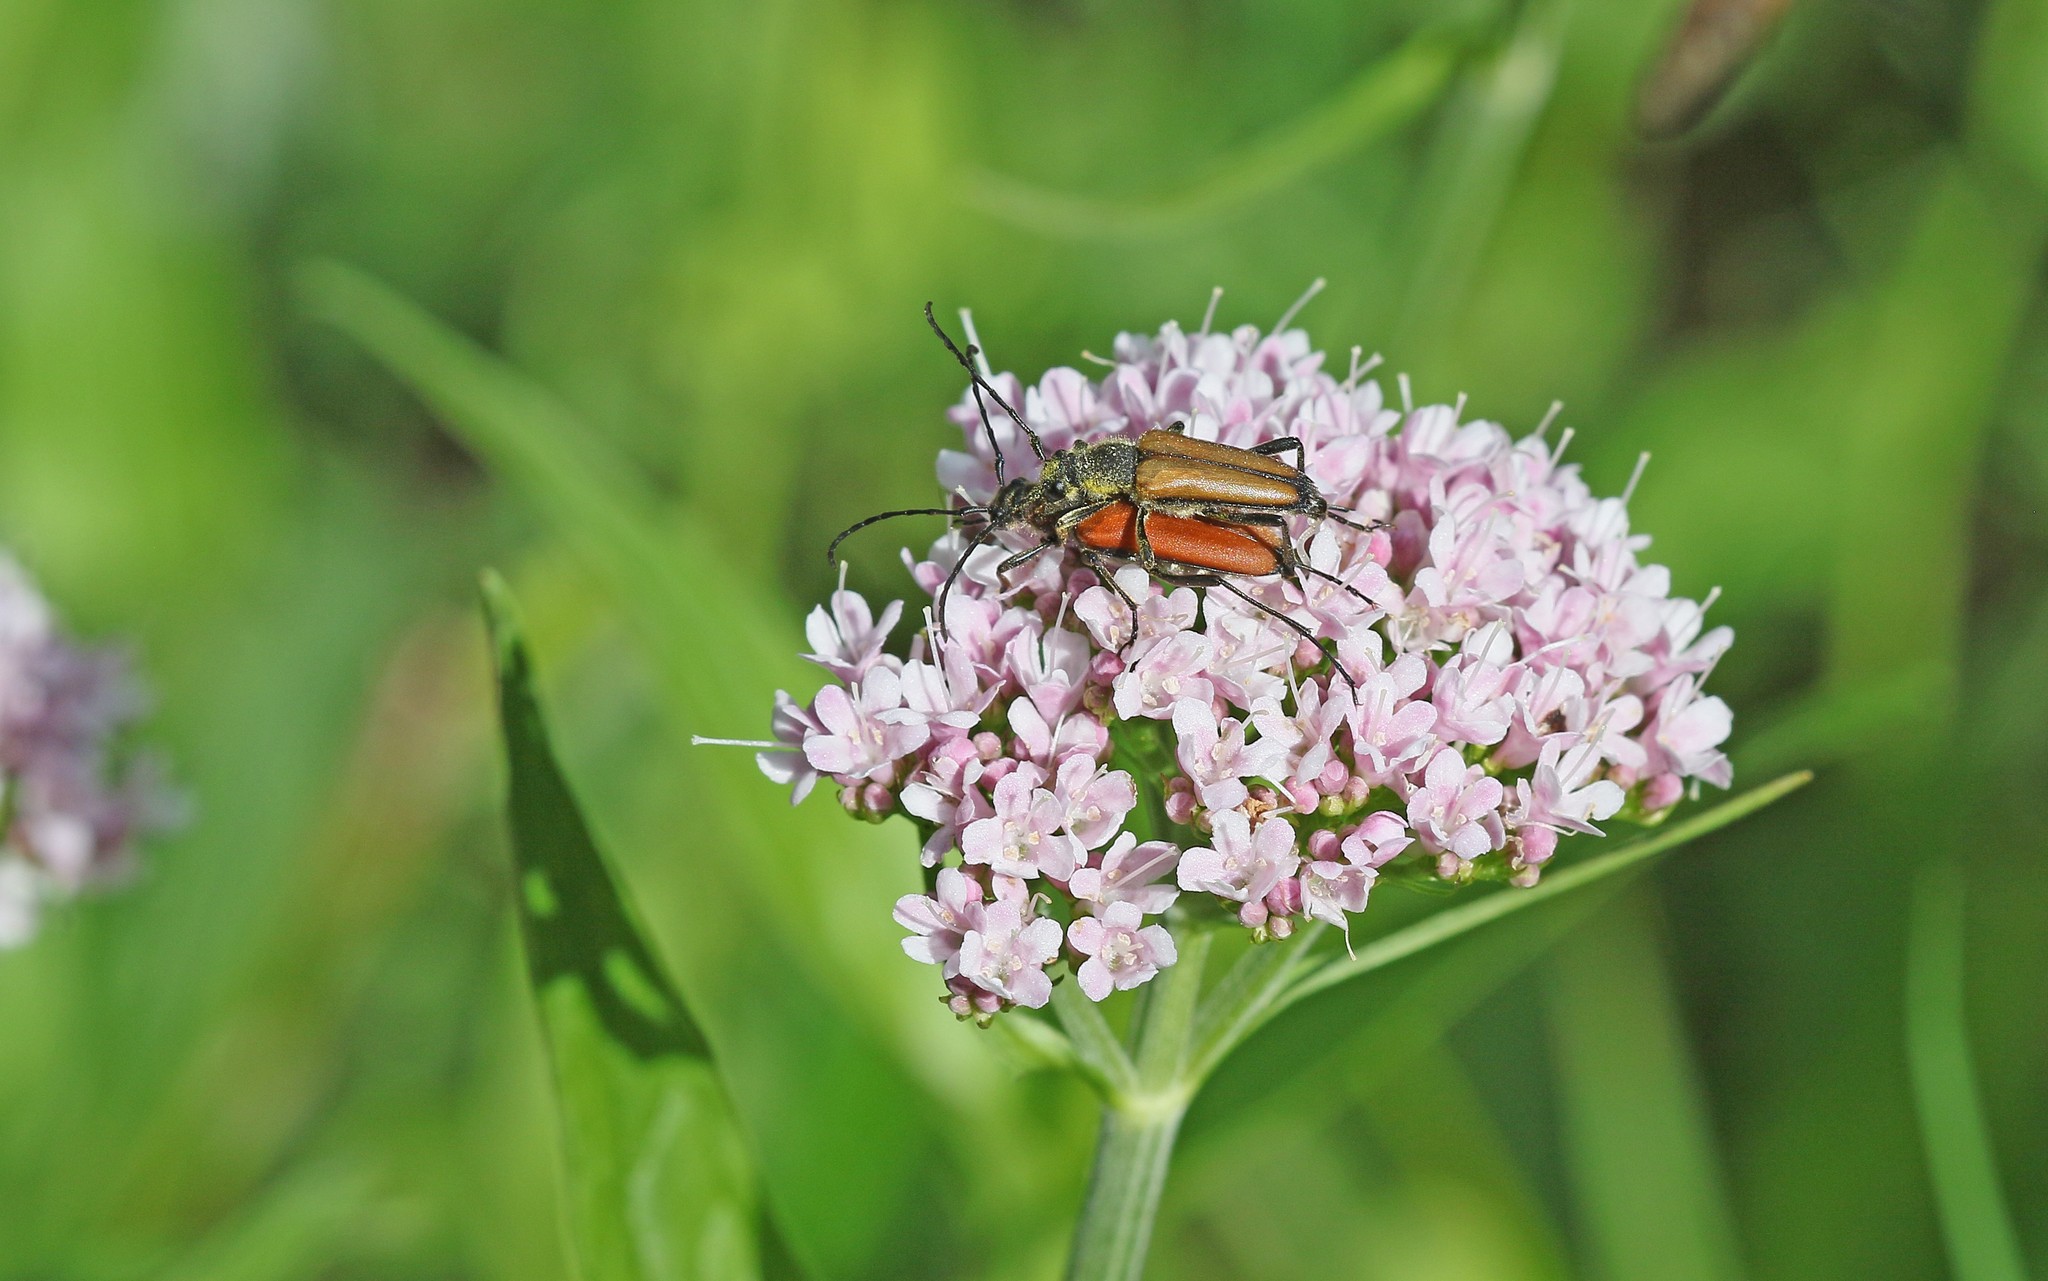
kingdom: Animalia
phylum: Arthropoda
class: Insecta
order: Coleoptera
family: Cerambycidae
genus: Stictoleptura
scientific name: Stictoleptura rubra
